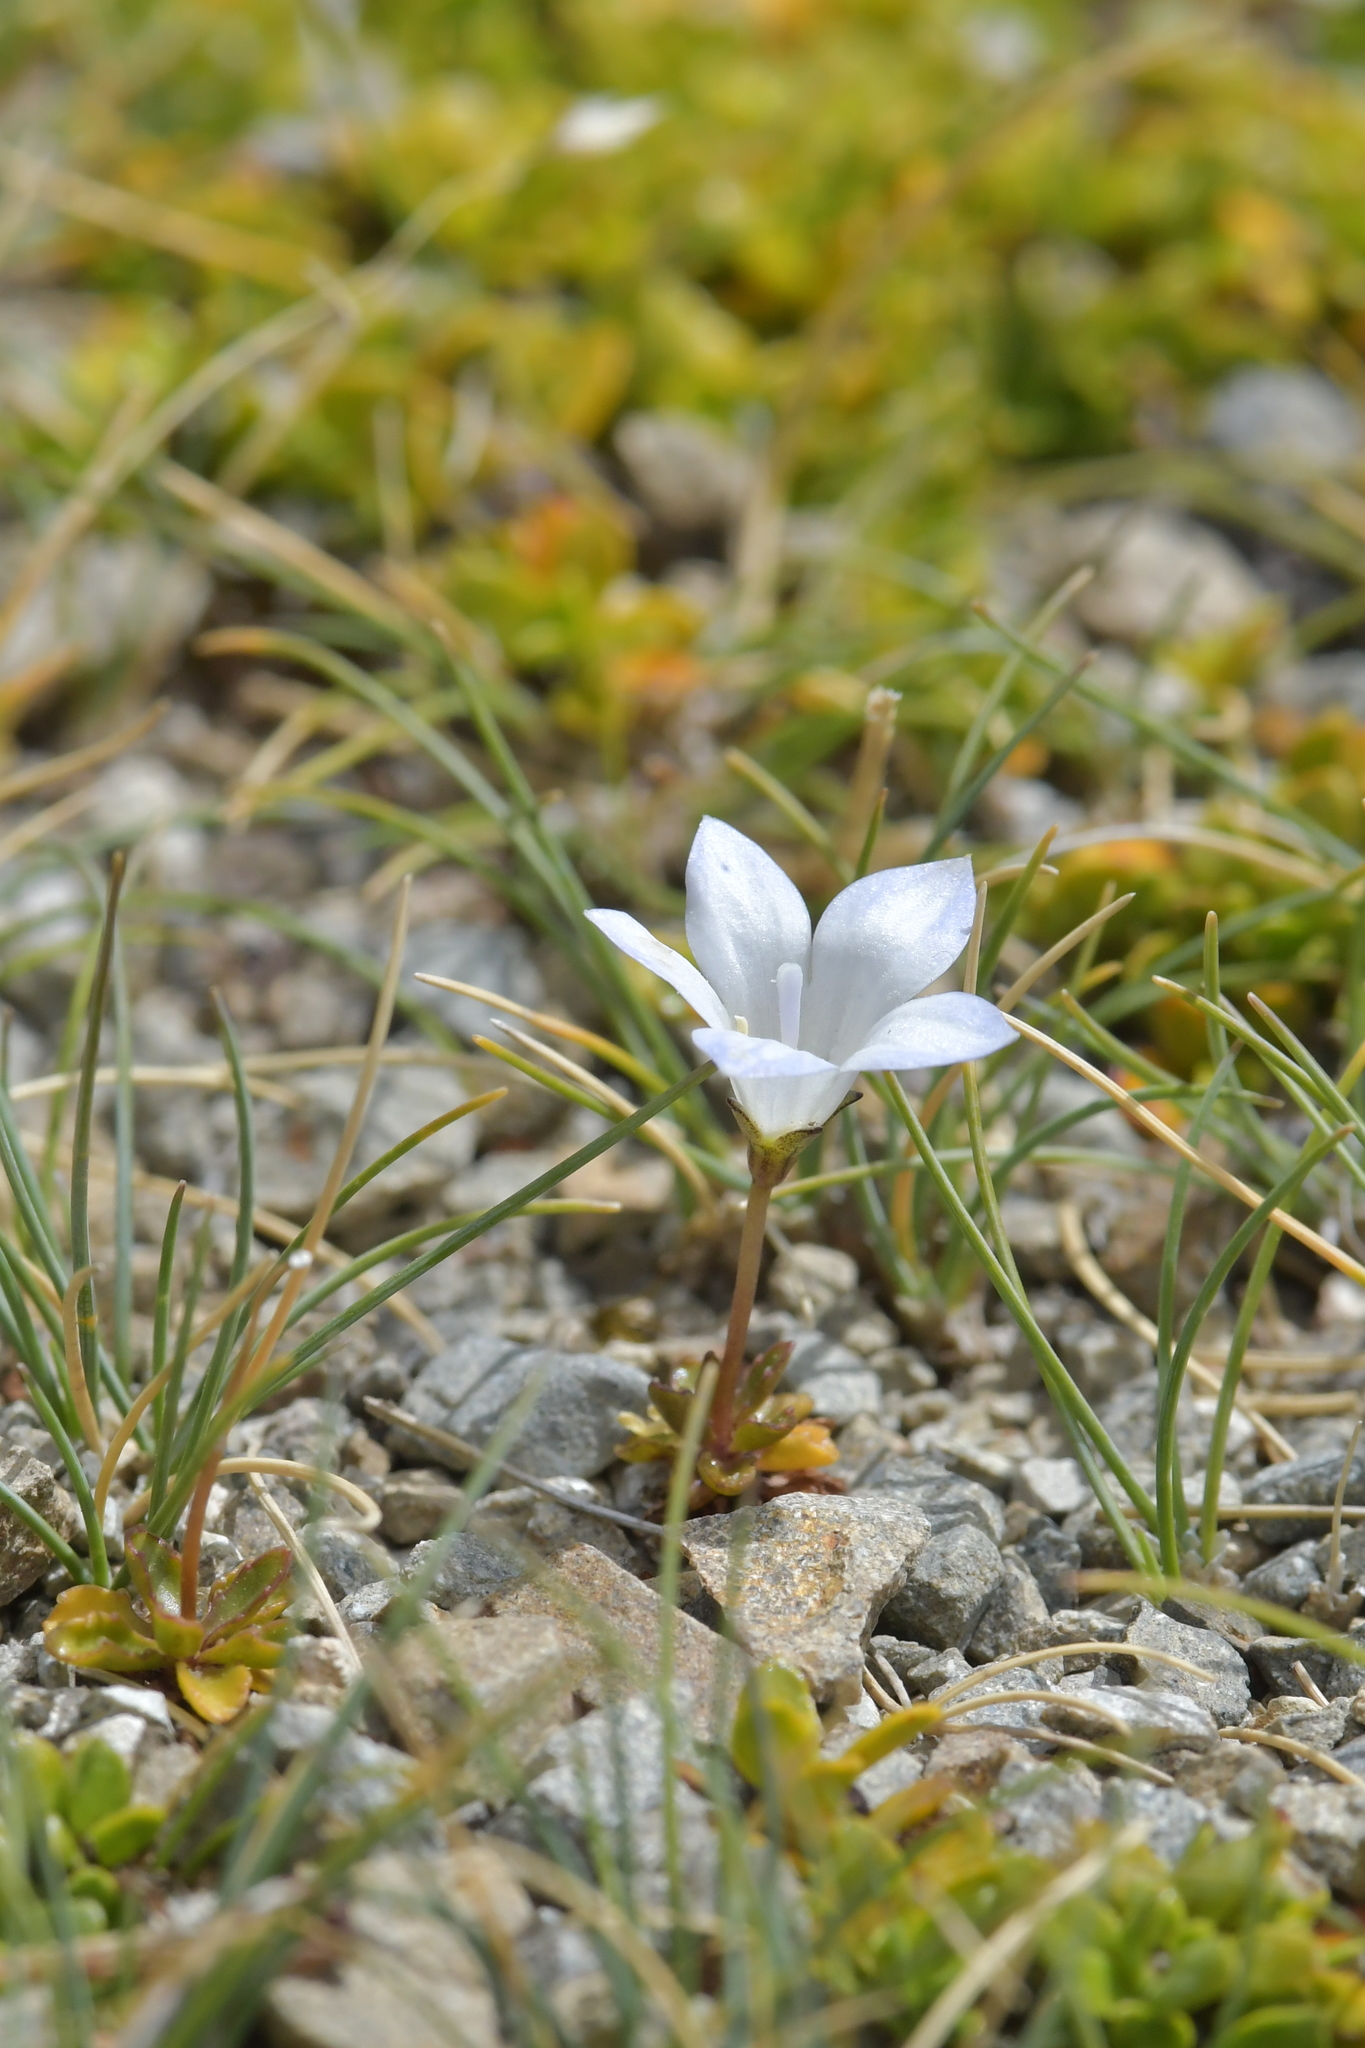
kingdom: Plantae
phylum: Tracheophyta
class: Magnoliopsida
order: Asterales
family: Campanulaceae
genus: Wahlenbergia
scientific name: Wahlenbergia pygmaea
